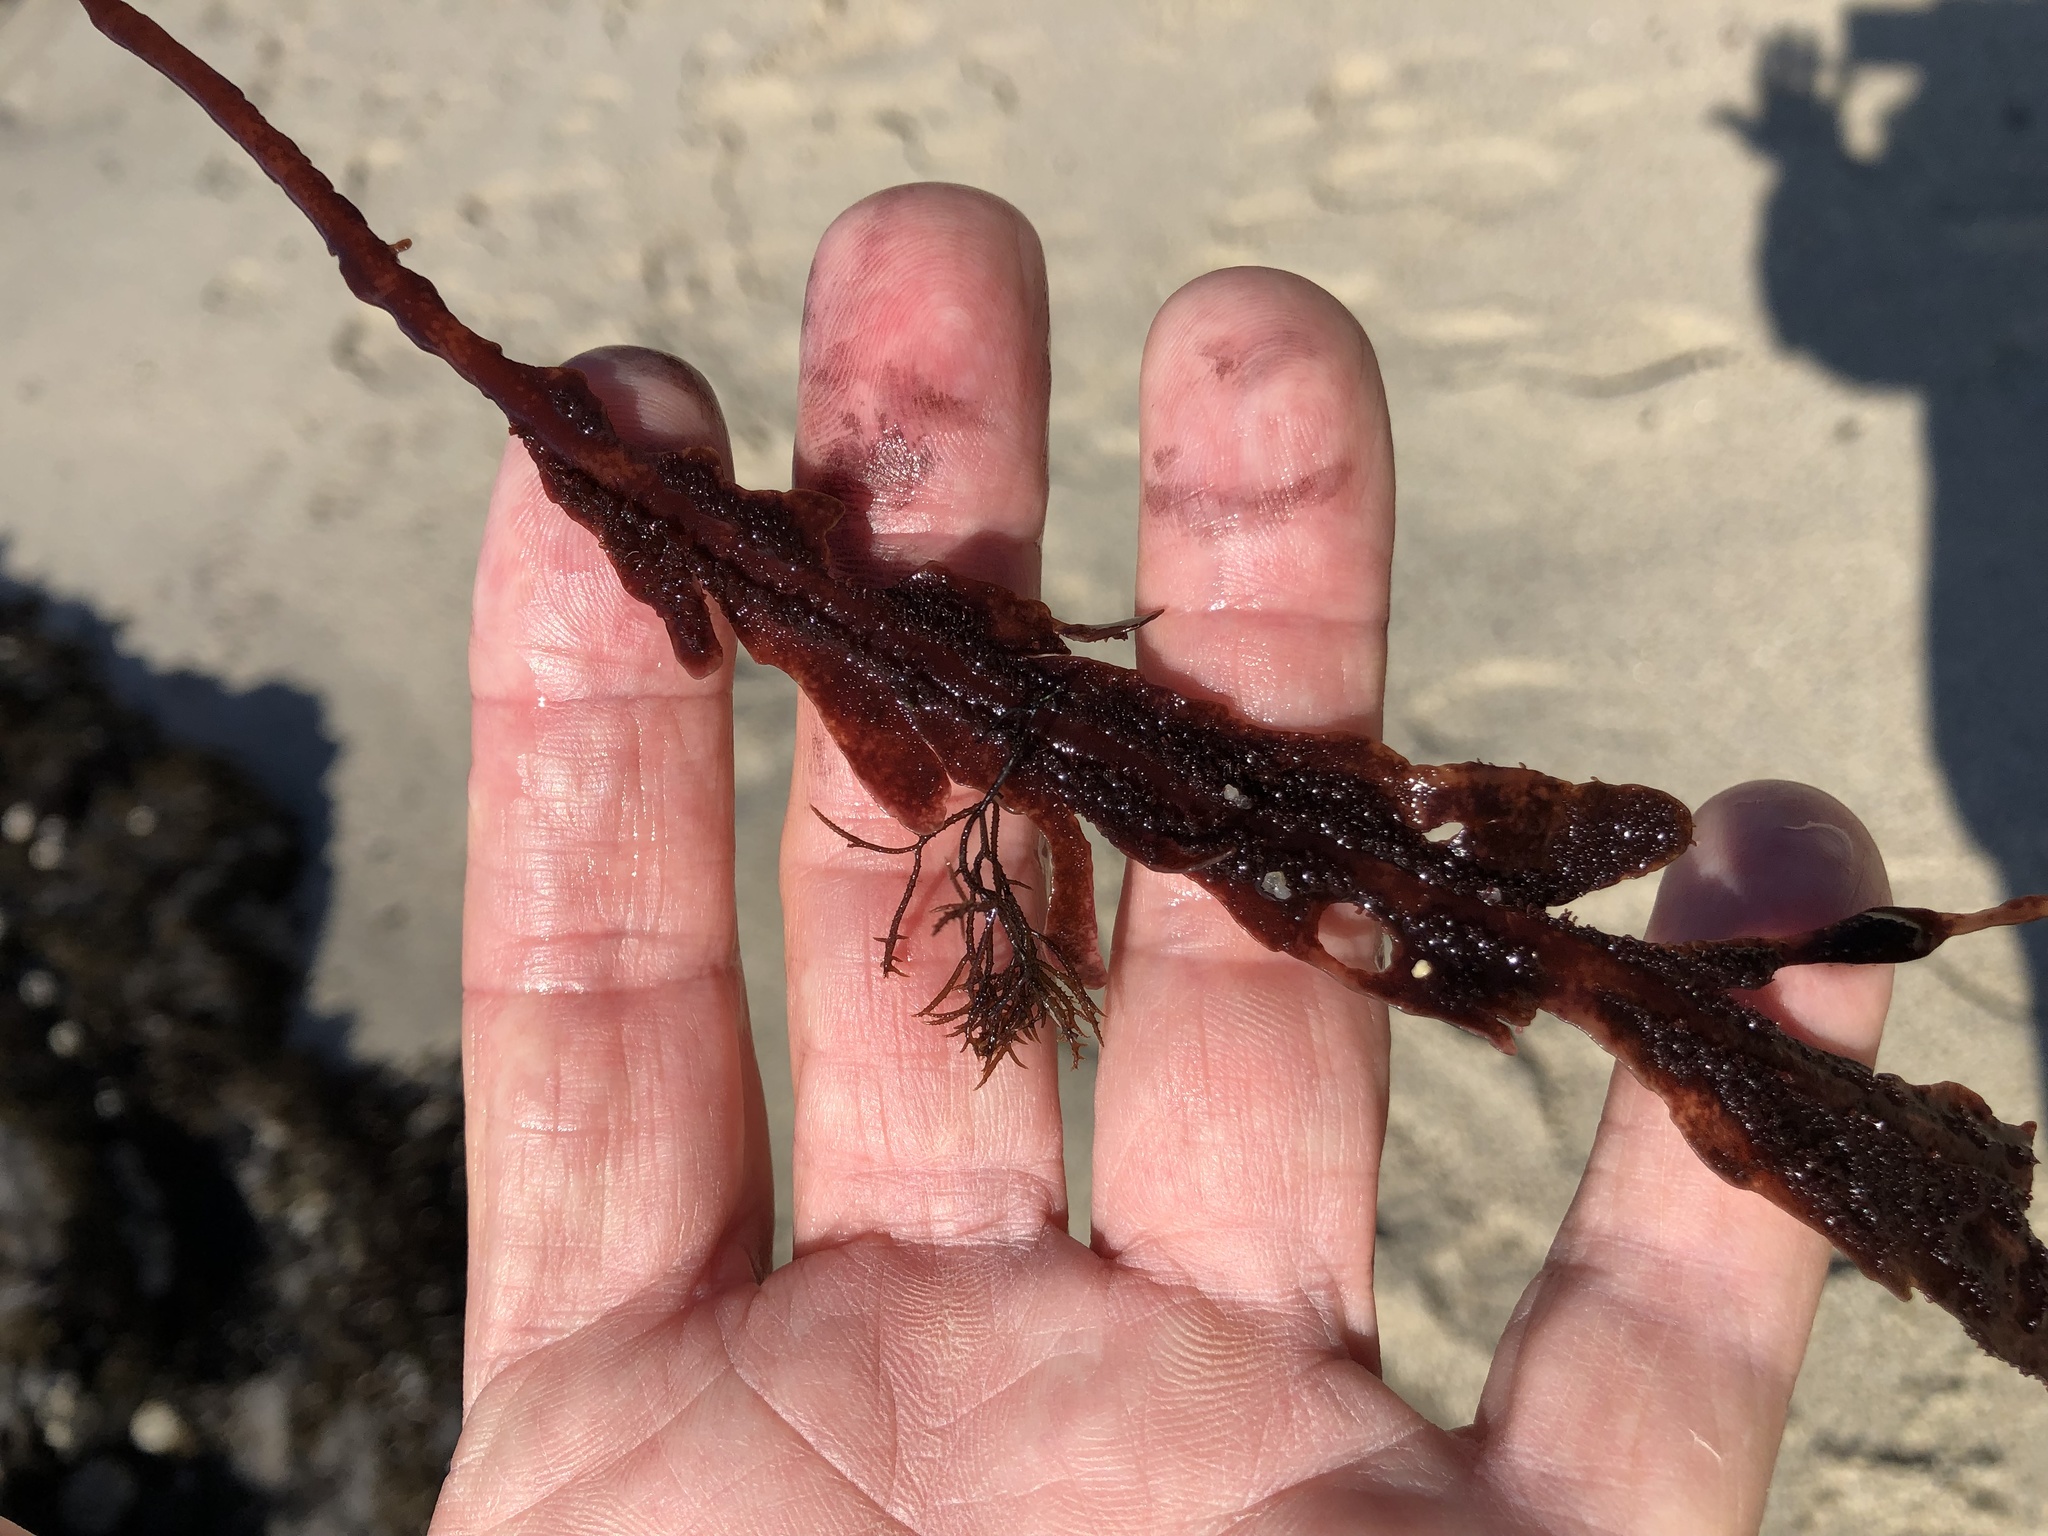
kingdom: Plantae
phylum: Rhodophyta
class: Florideophyceae
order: Gigartinales
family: Kallymeniaceae
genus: Erythrophyllum
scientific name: Erythrophyllum delesserioides
